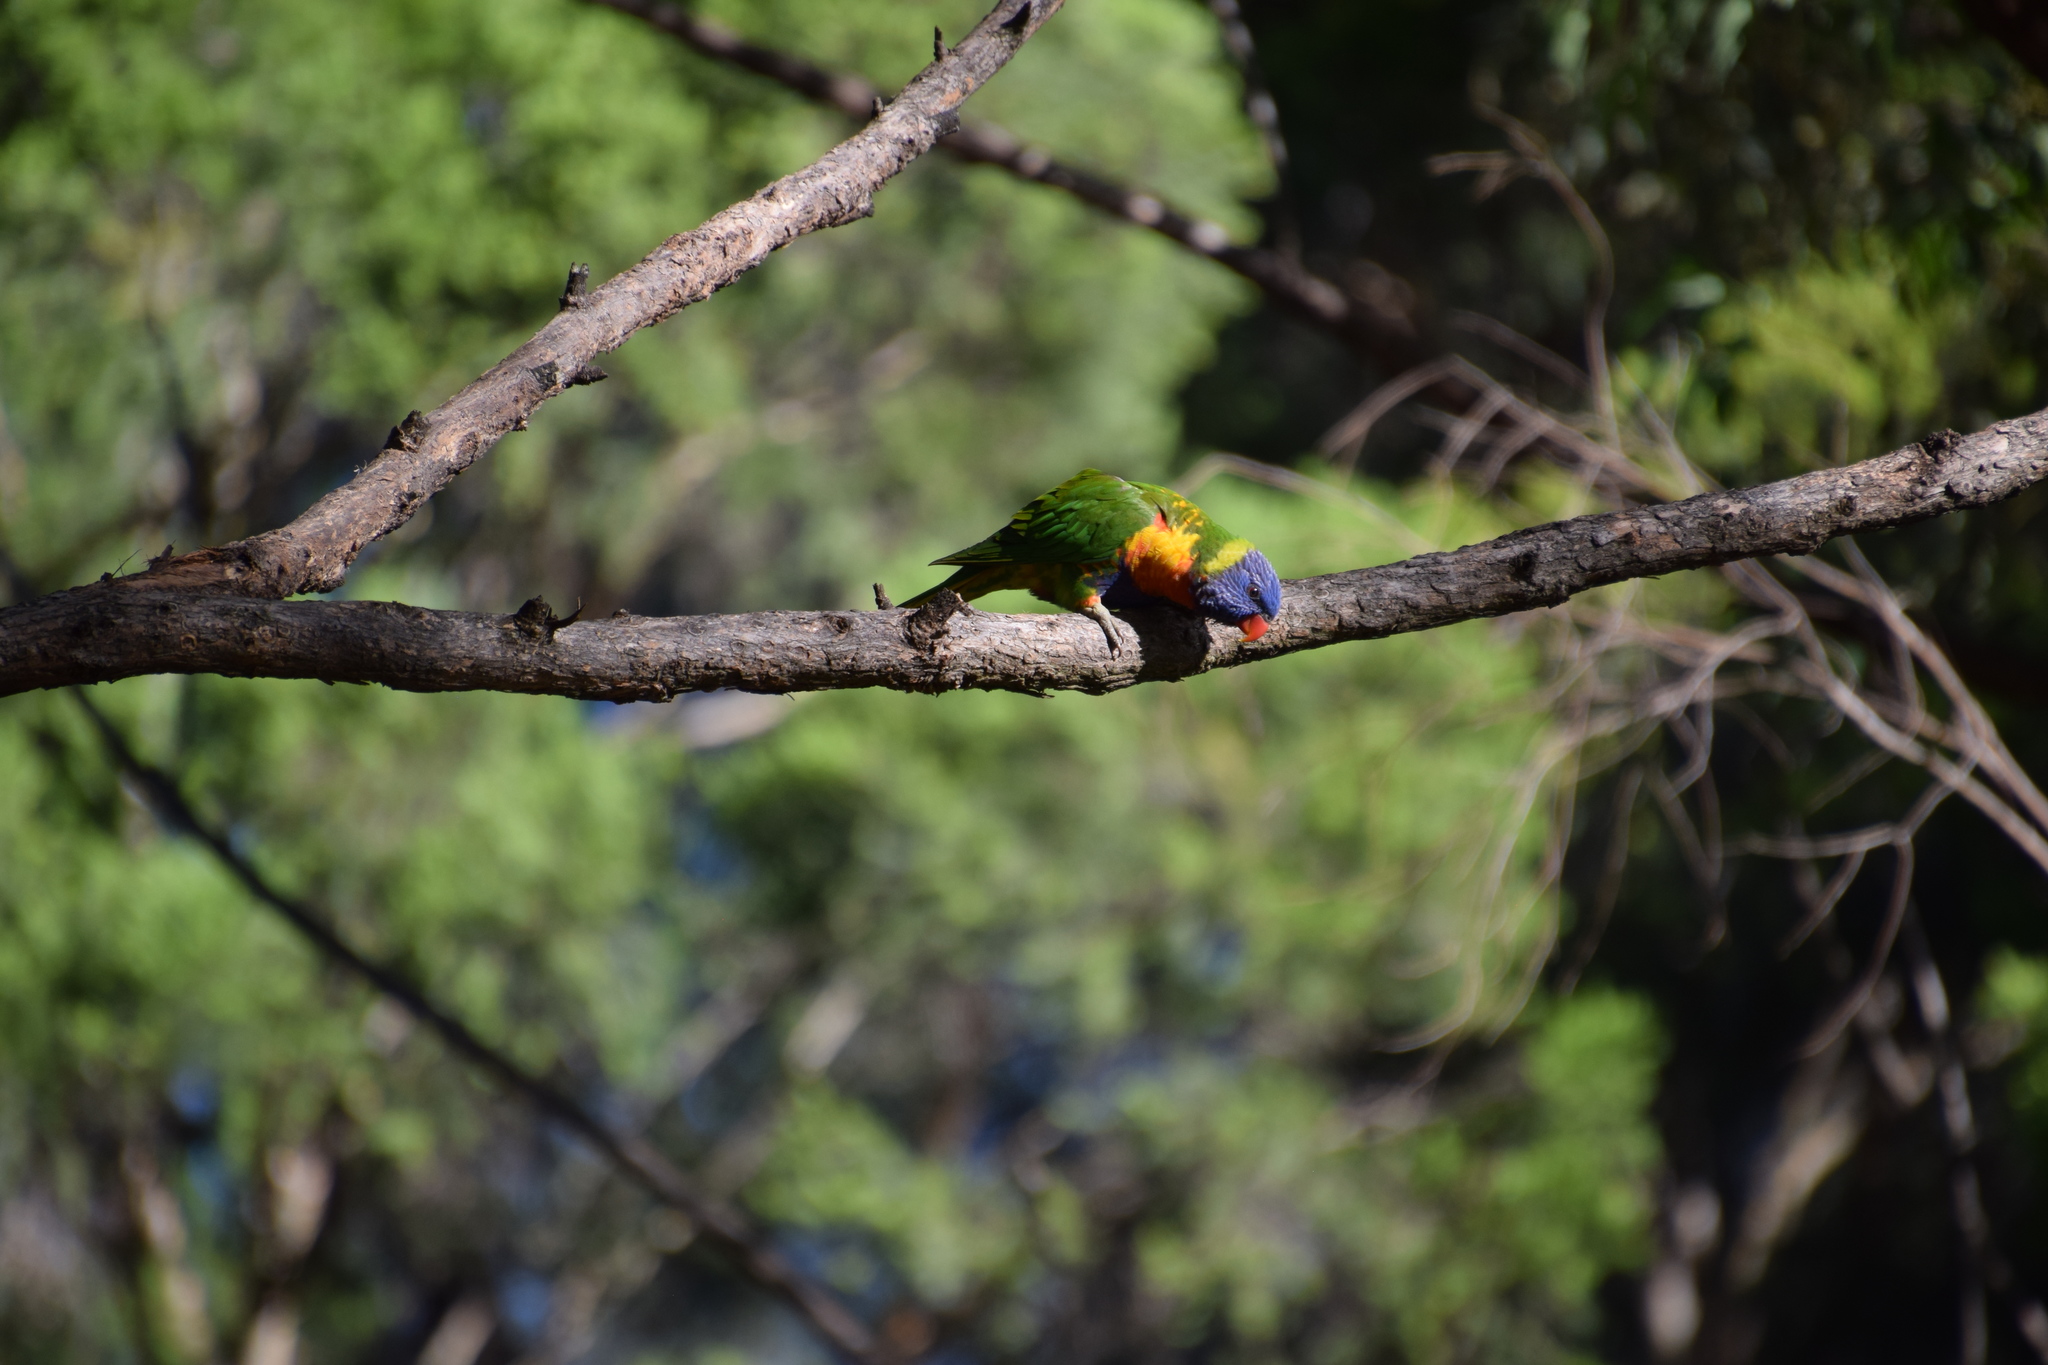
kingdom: Animalia
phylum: Chordata
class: Aves
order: Psittaciformes
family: Psittacidae
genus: Trichoglossus
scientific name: Trichoglossus haematodus
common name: Coconut lorikeet
